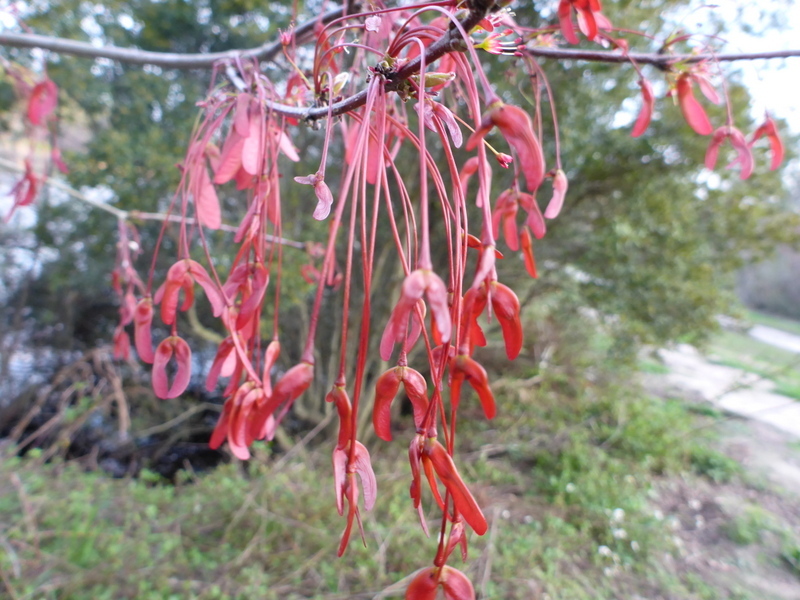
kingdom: Plantae
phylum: Tracheophyta
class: Magnoliopsida
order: Sapindales
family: Sapindaceae
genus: Acer
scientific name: Acer rubrum
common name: Red maple
